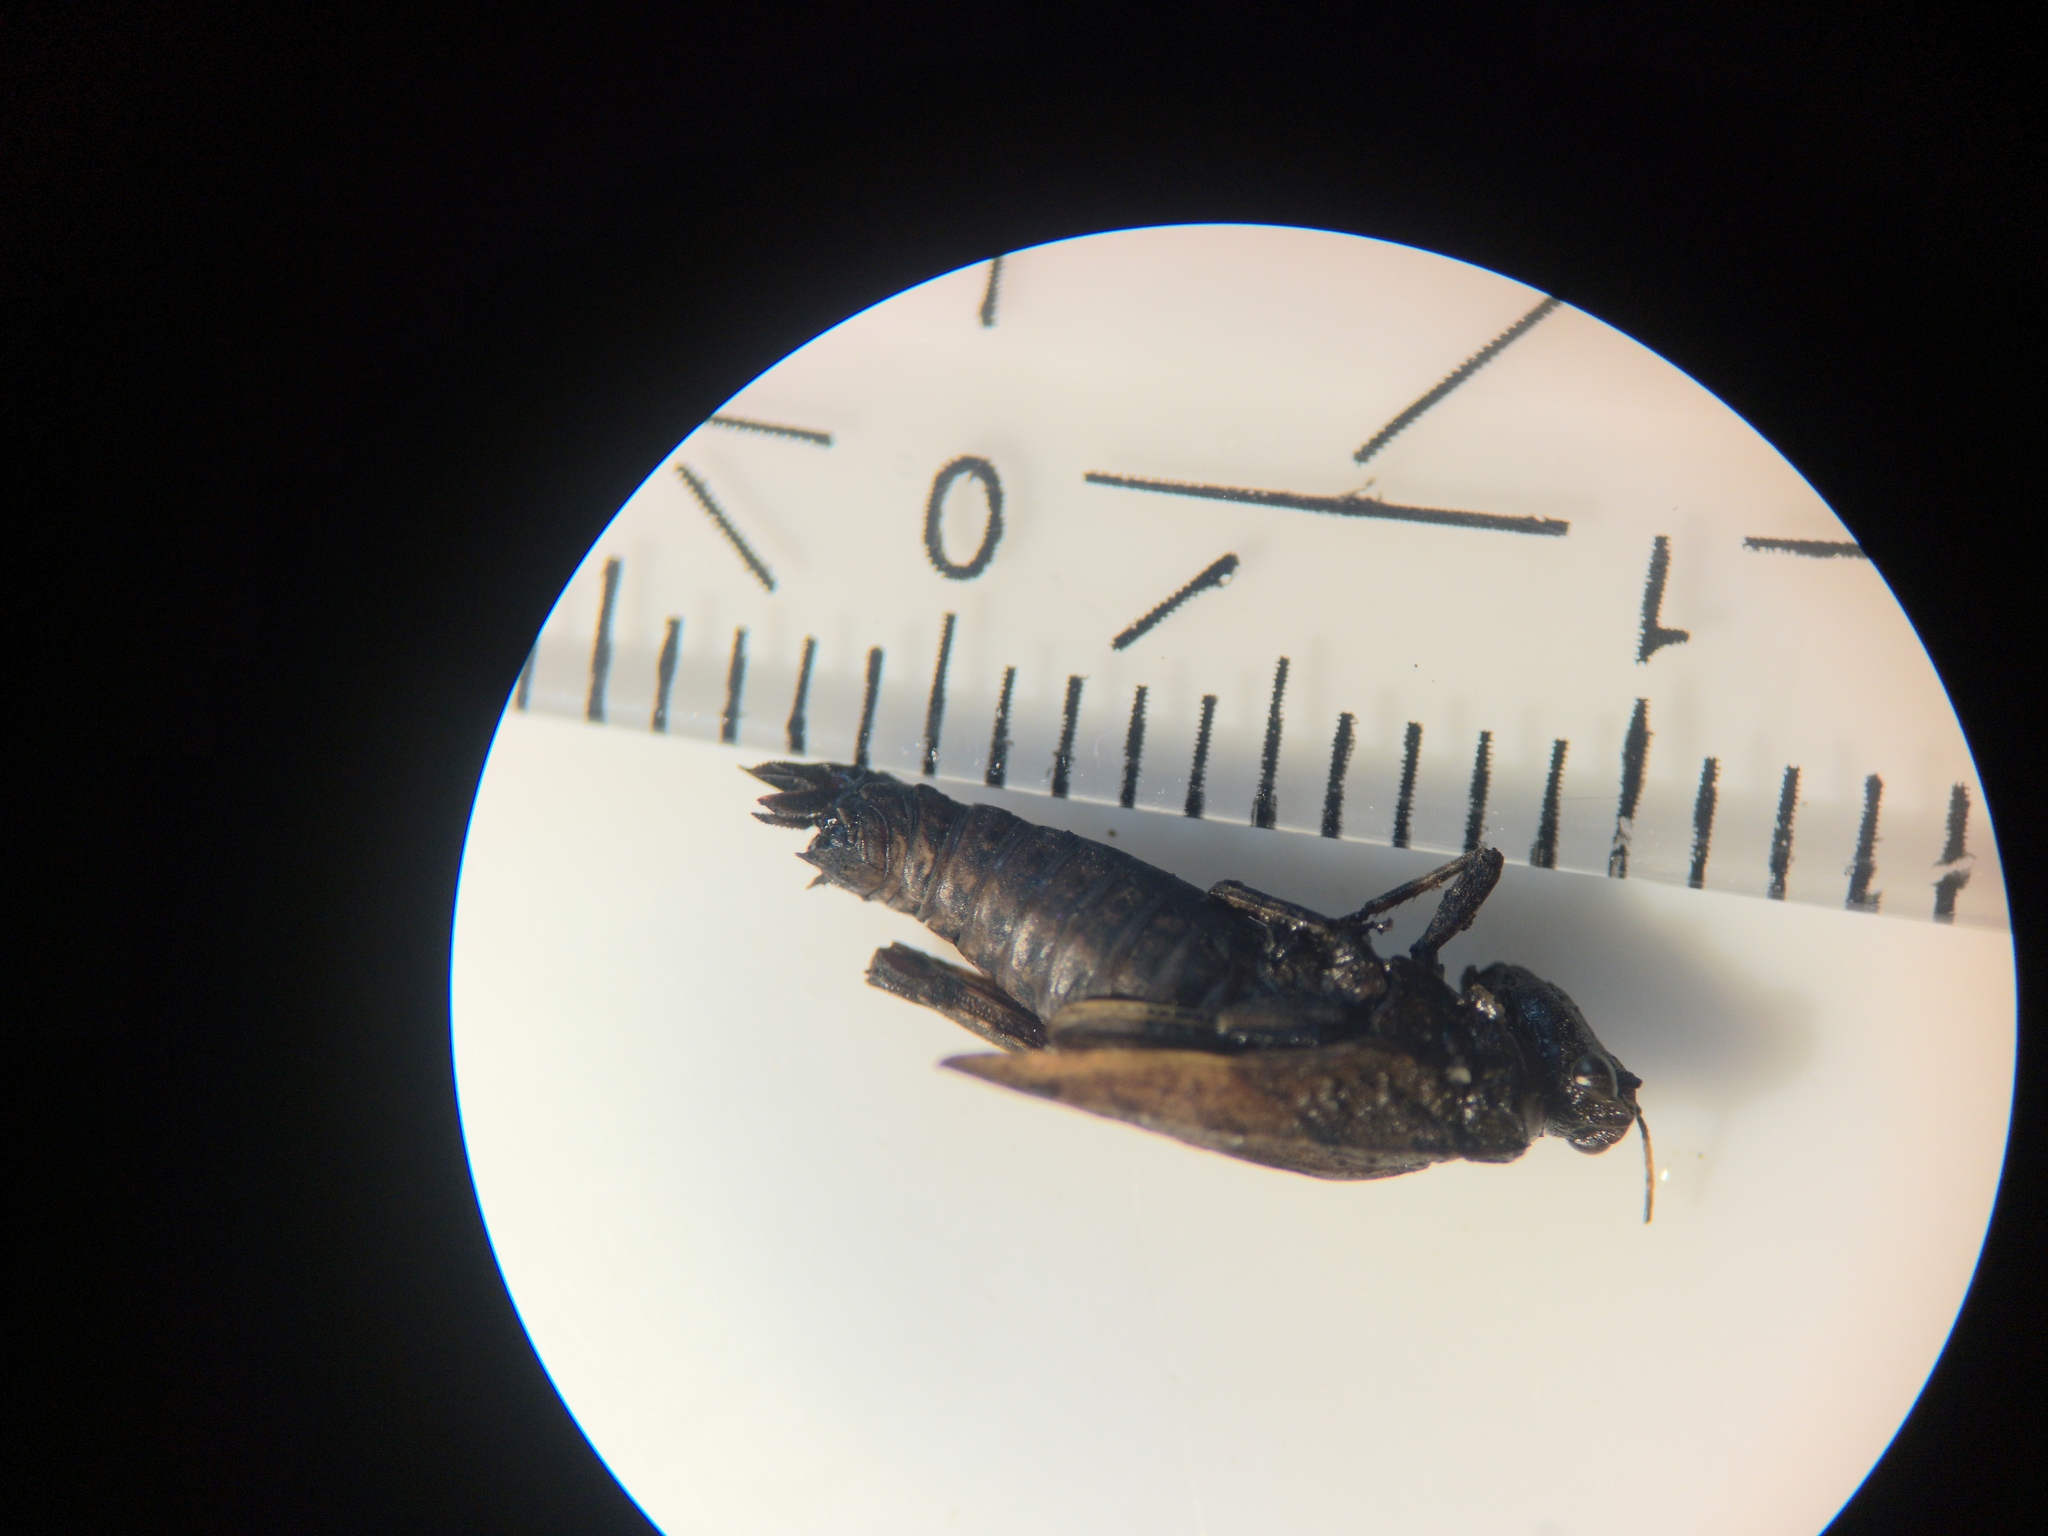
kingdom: Animalia
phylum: Arthropoda
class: Insecta
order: Orthoptera
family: Tetrigidae
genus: Tetrix
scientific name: Tetrix undulata
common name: Common groundhopper
